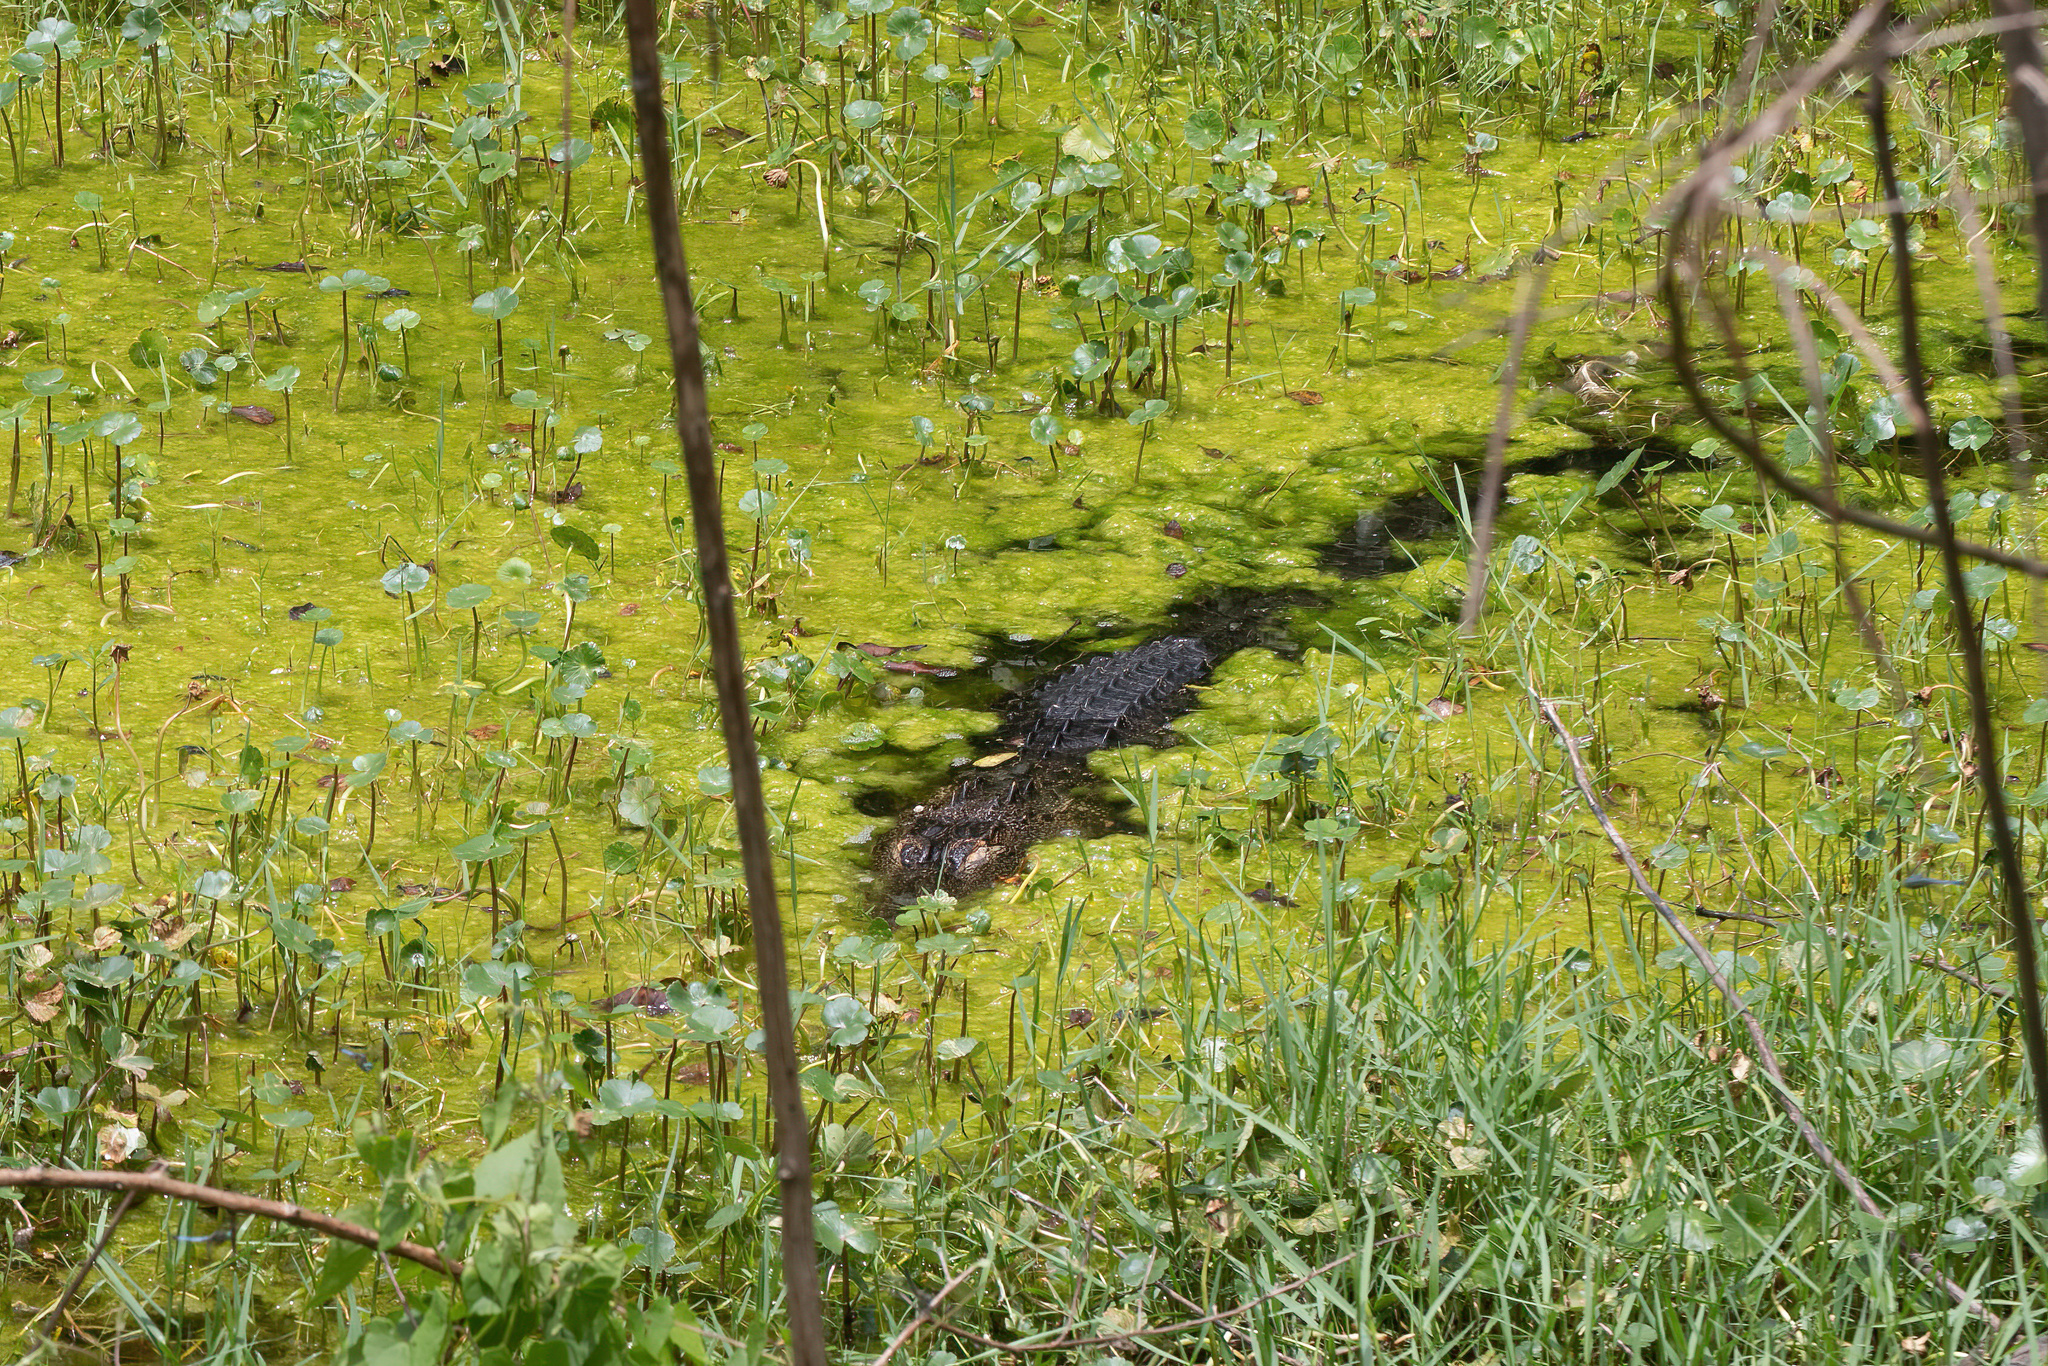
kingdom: Animalia
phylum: Chordata
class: Crocodylia
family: Alligatoridae
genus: Alligator
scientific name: Alligator mississippiensis
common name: American alligator
